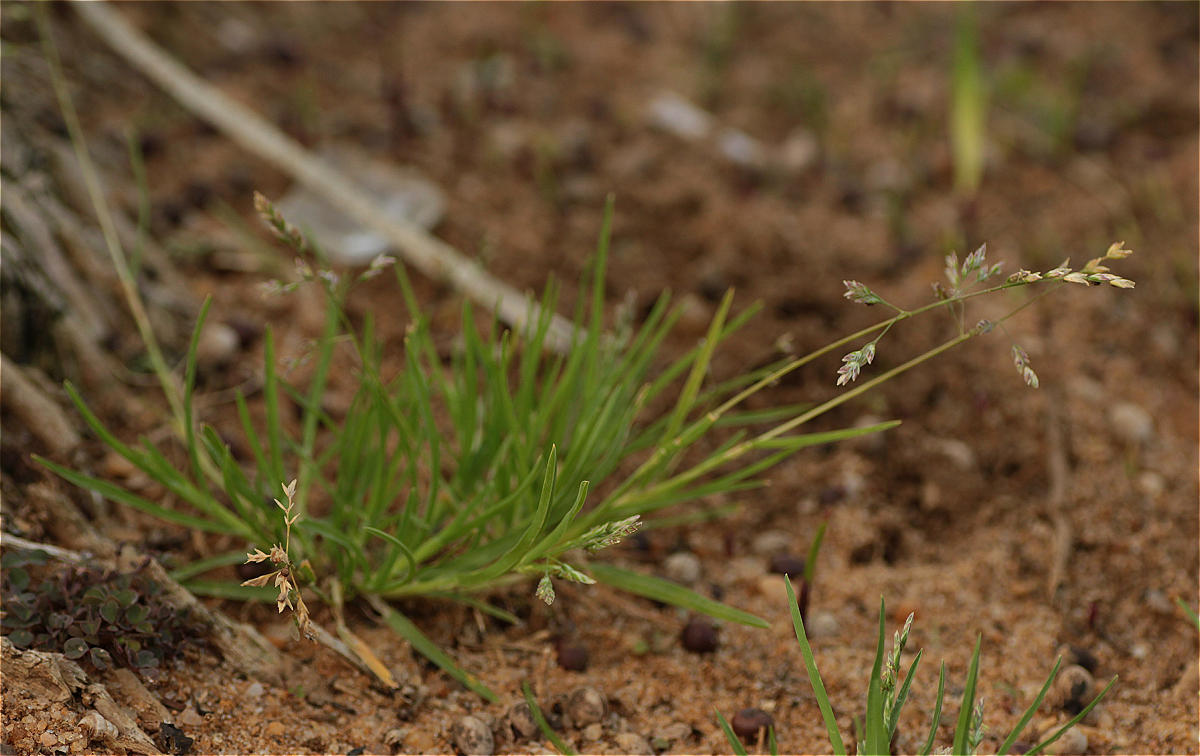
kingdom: Plantae
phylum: Tracheophyta
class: Liliopsida
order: Poales
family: Poaceae
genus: Poa
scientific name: Poa annua
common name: Annual bluegrass
